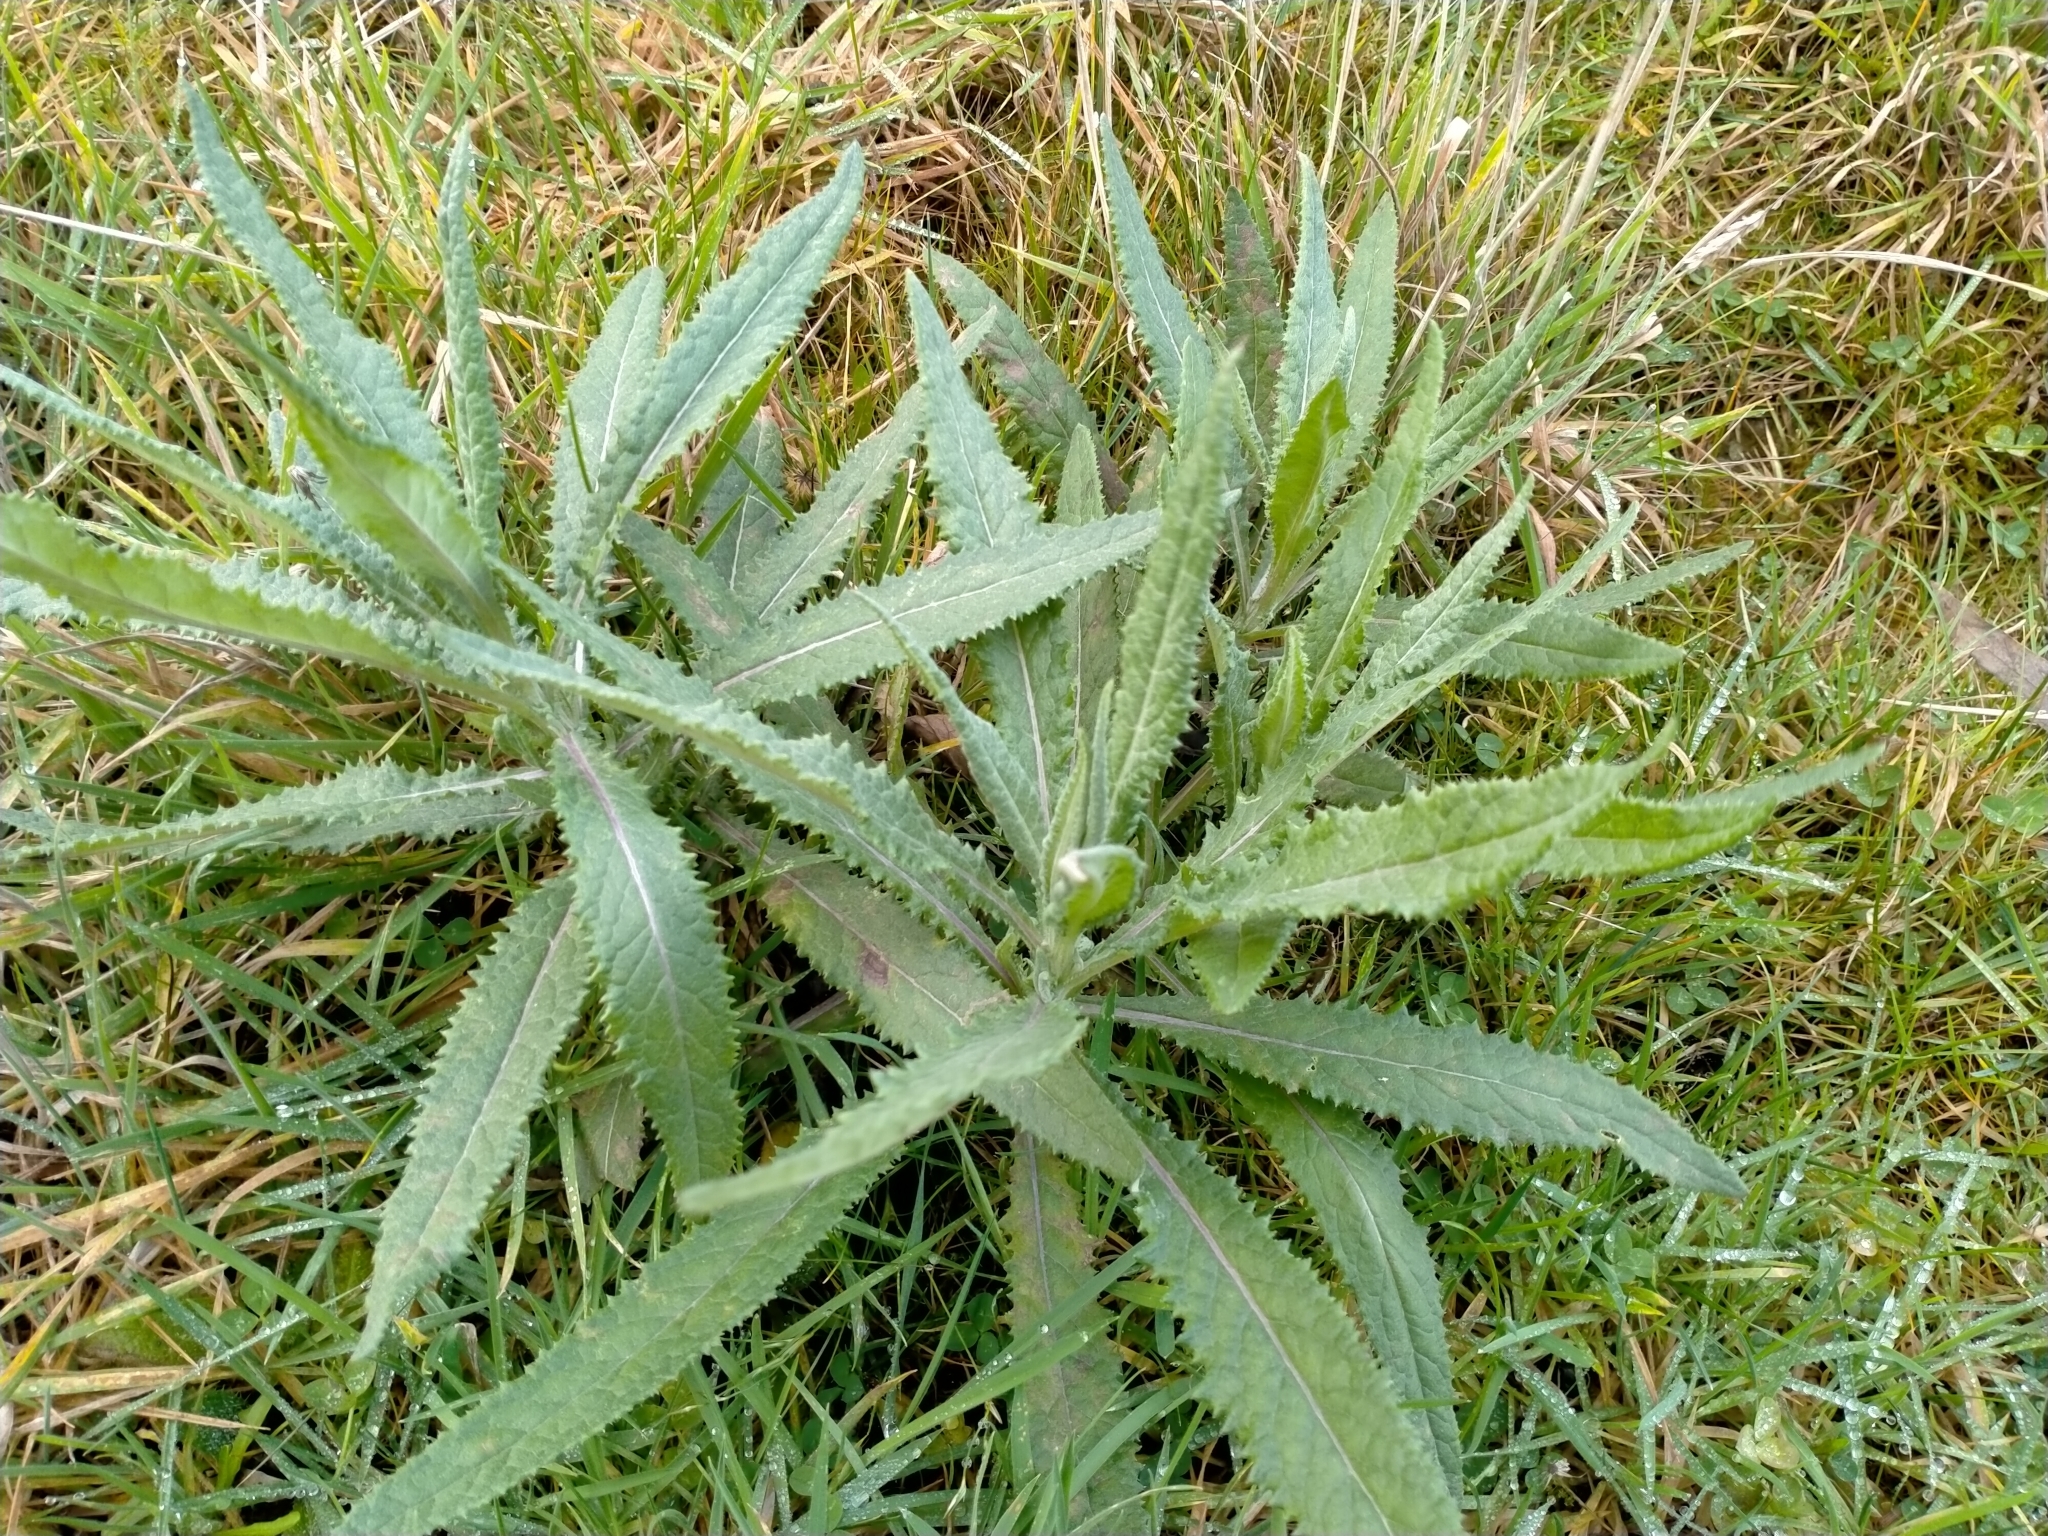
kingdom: Plantae
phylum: Tracheophyta
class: Magnoliopsida
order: Asterales
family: Asteraceae
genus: Senecio
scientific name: Senecio minimus
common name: Toothed fireweed
